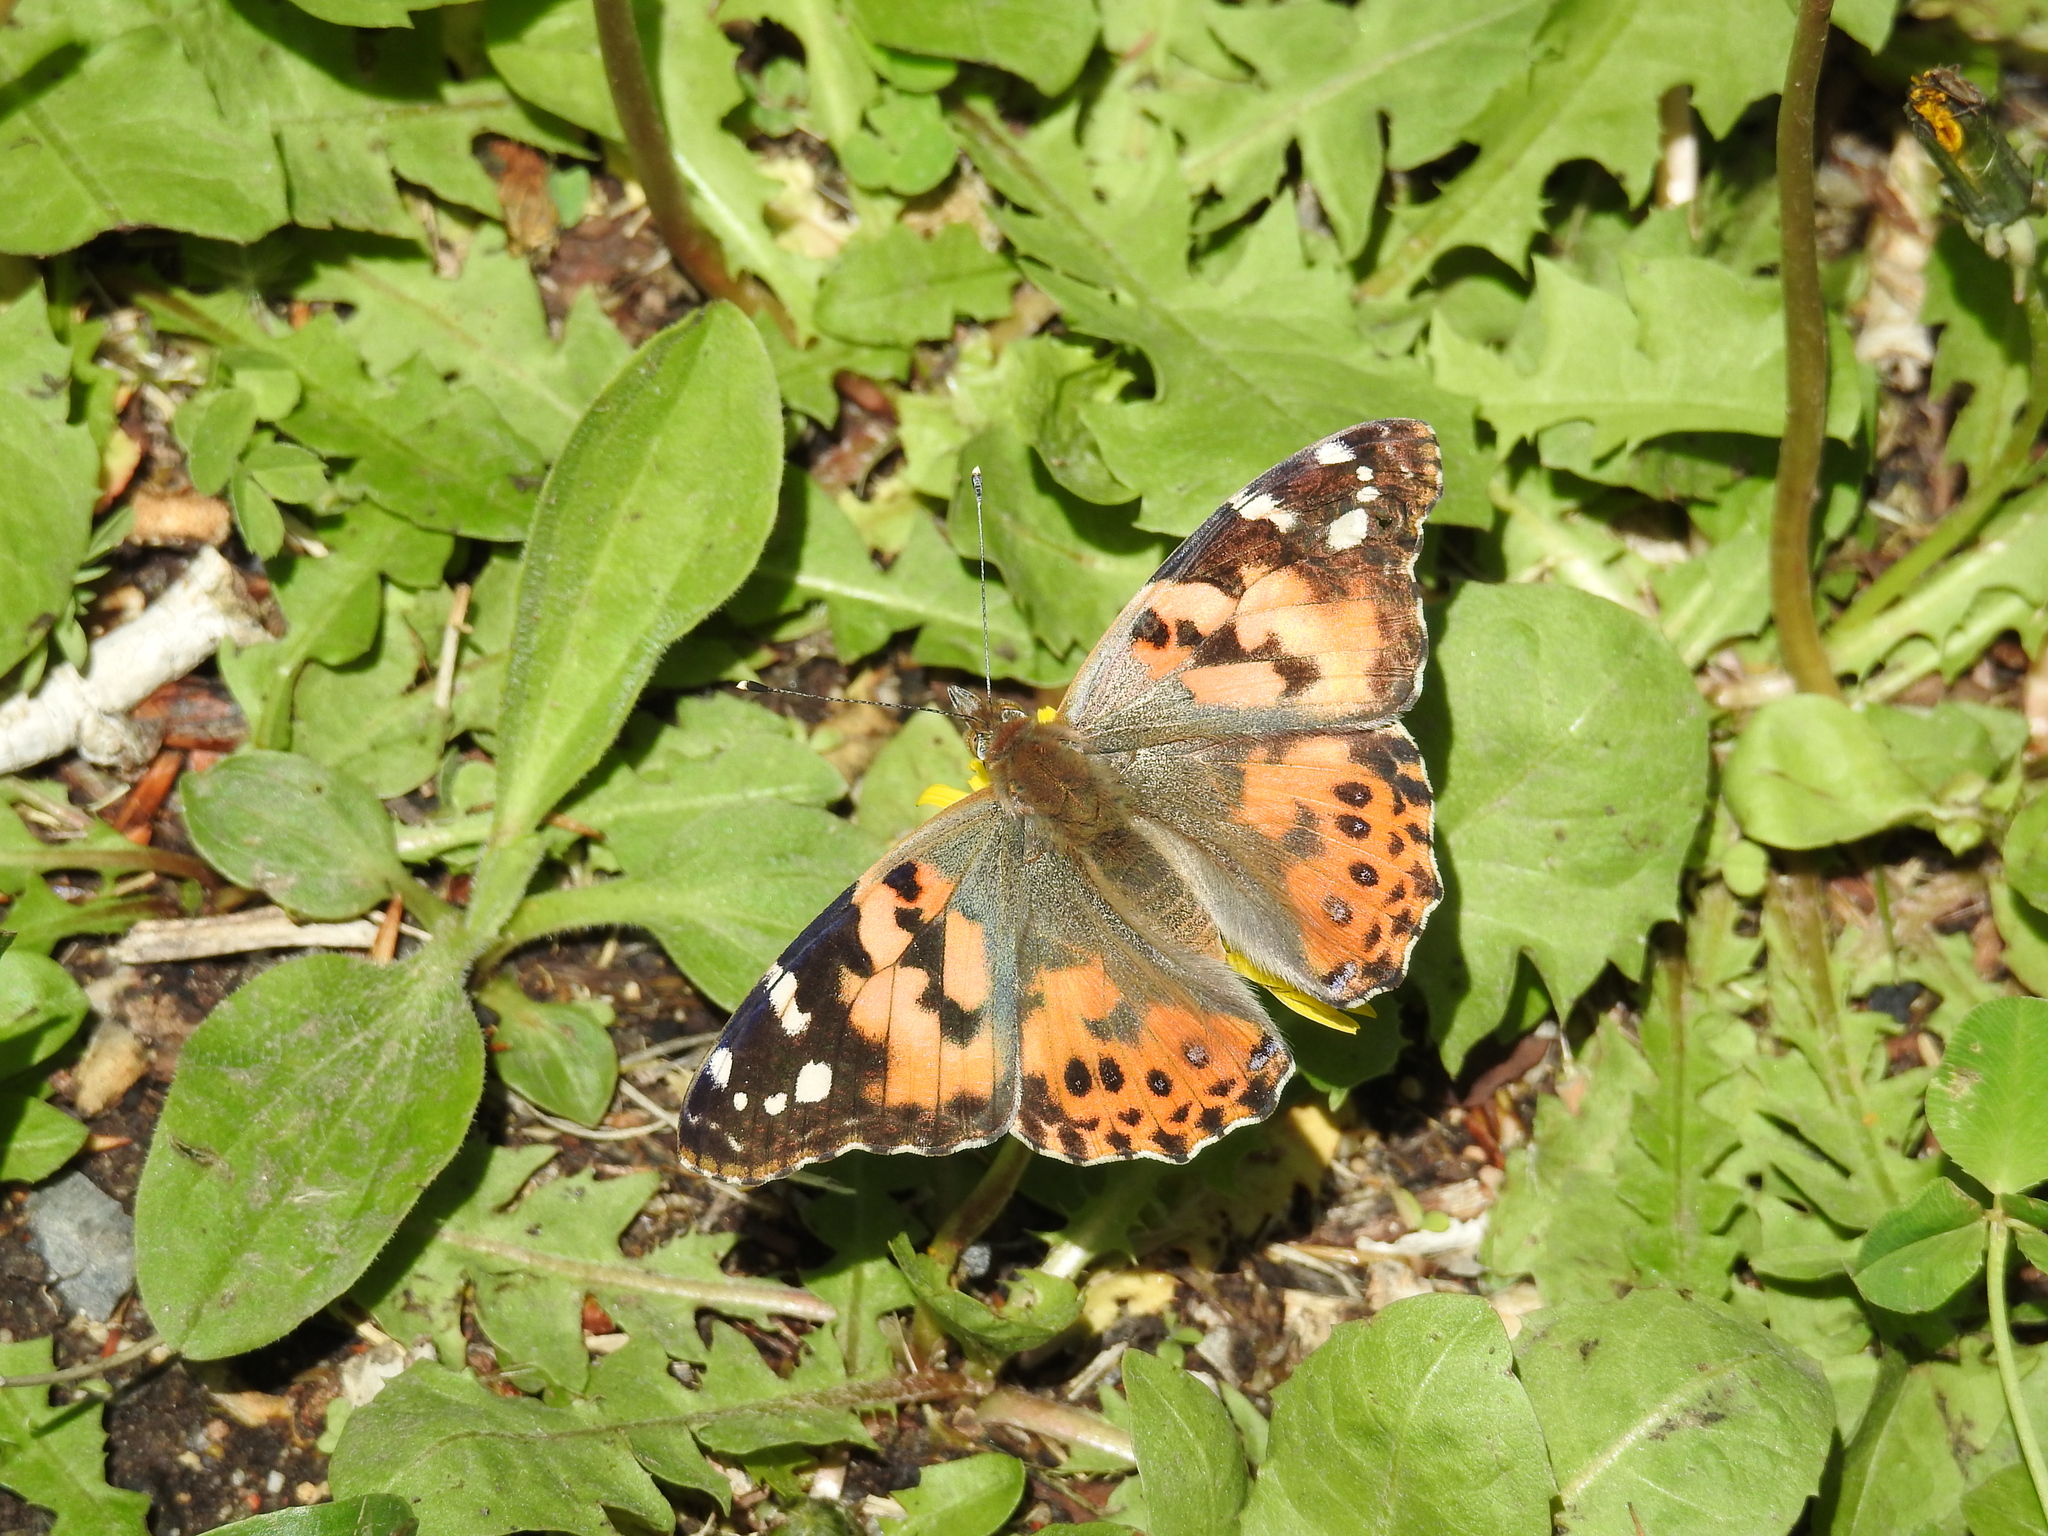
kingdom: Animalia
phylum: Arthropoda
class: Insecta
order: Lepidoptera
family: Nymphalidae
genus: Vanessa
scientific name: Vanessa cardui
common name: Painted lady
